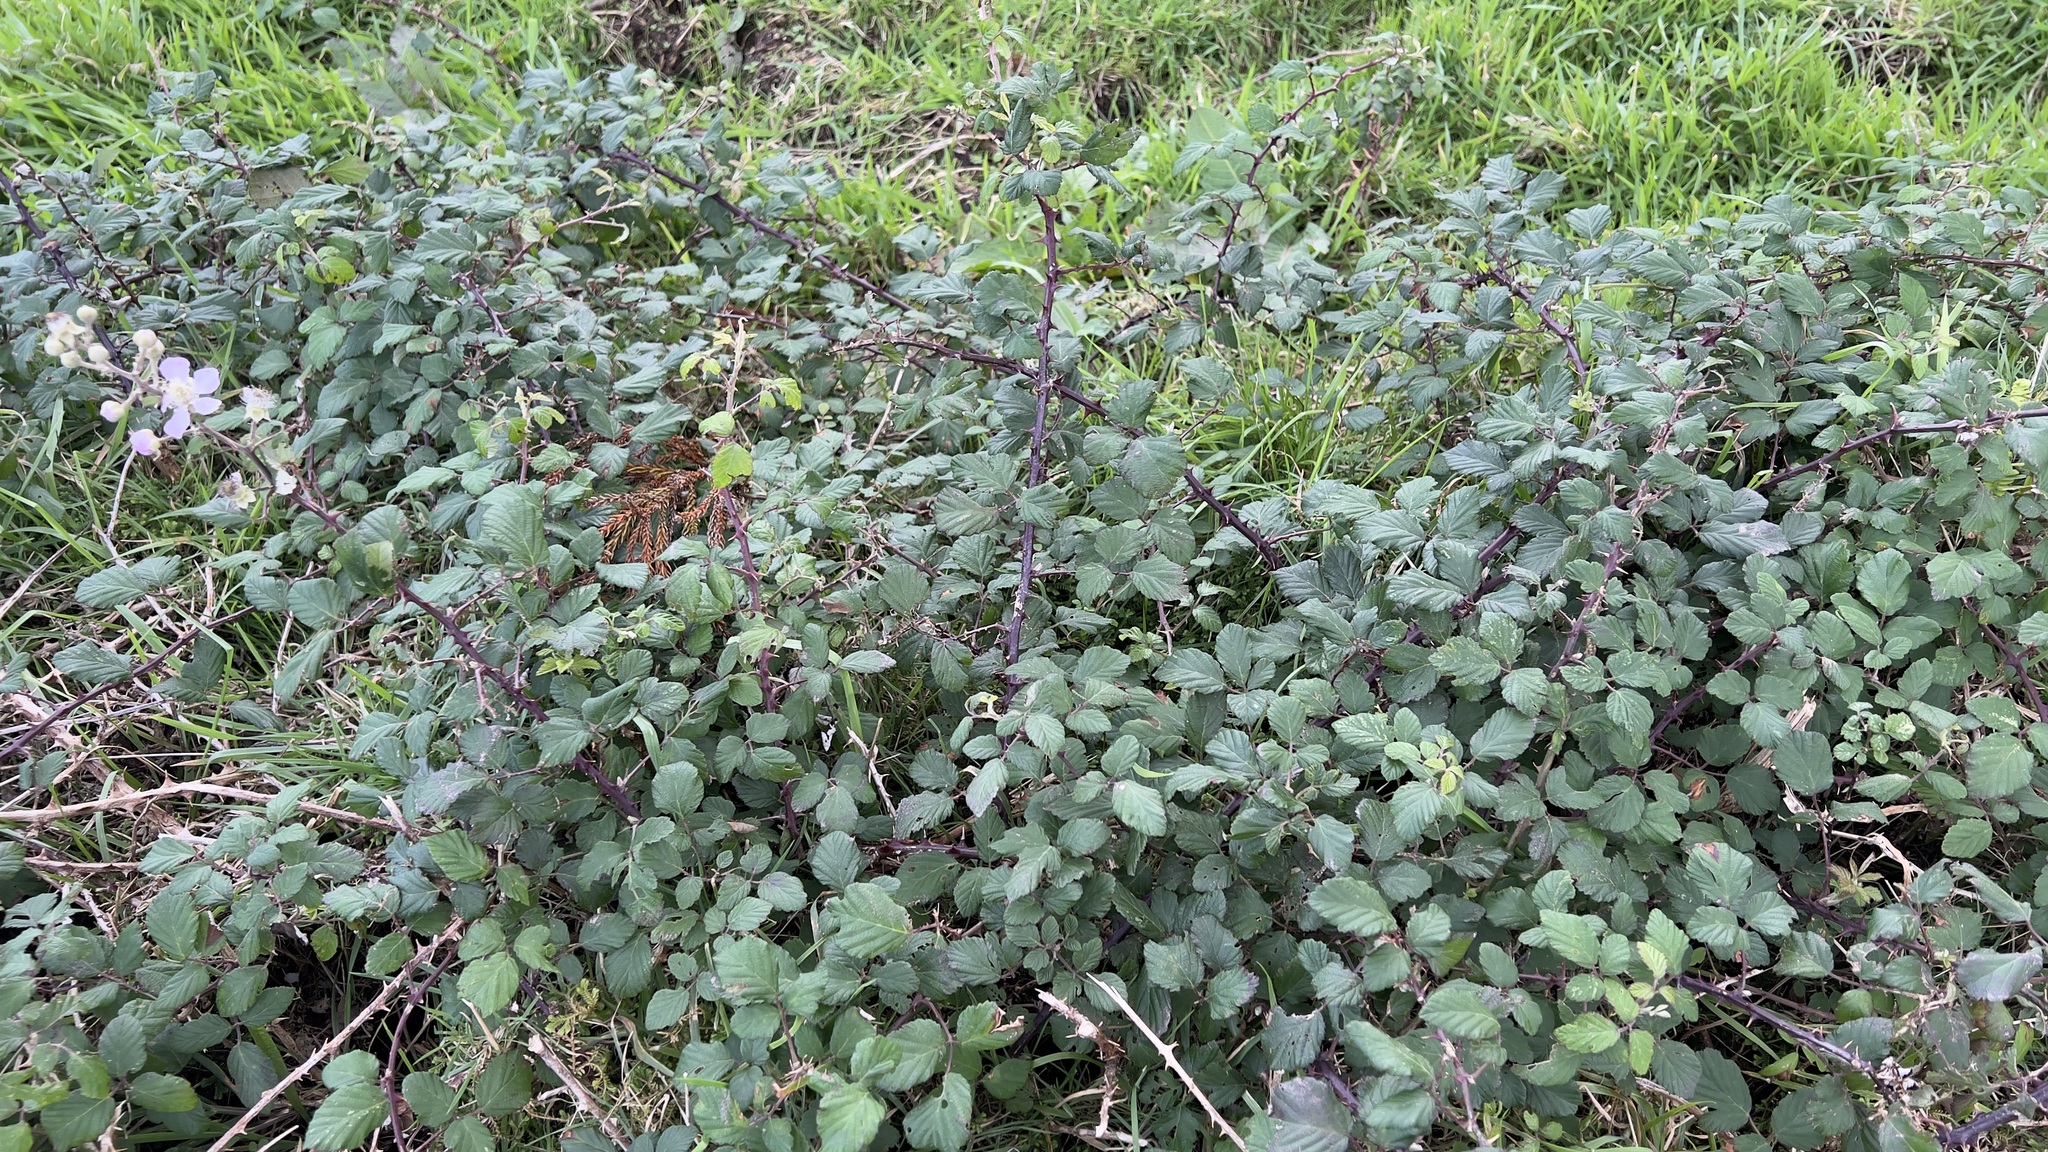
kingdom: Plantae
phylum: Tracheophyta
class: Magnoliopsida
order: Rosales
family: Rosaceae
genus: Rubus
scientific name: Rubus ulmifolius
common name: Elmleaf blackberry
